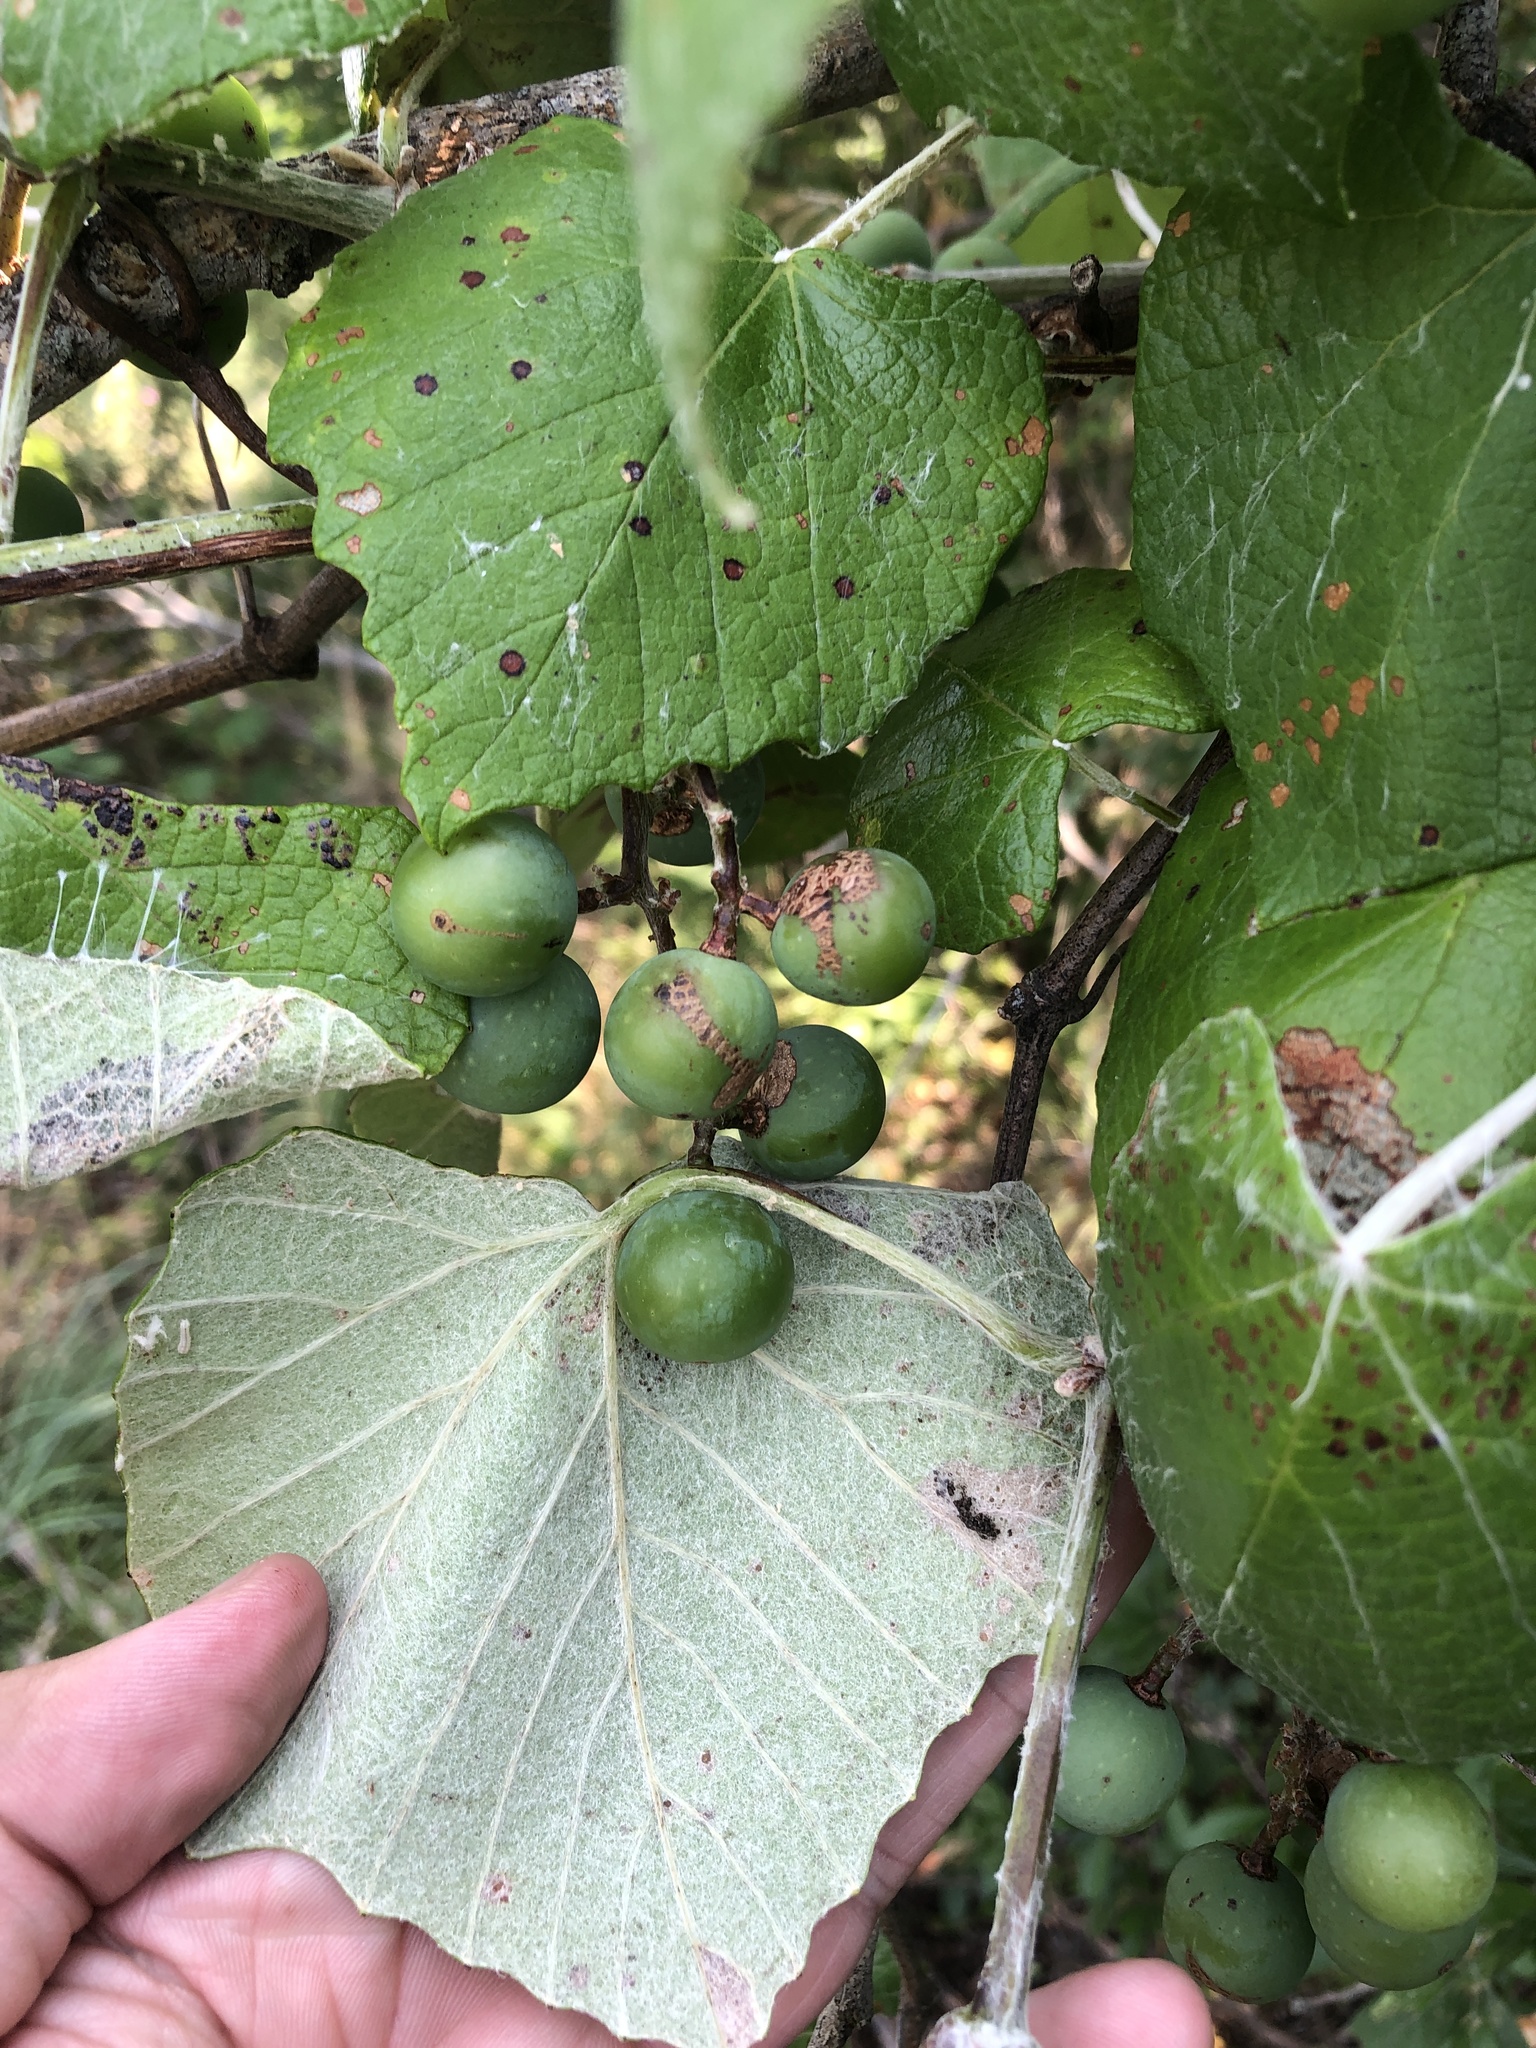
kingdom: Plantae
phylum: Tracheophyta
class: Magnoliopsida
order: Vitales
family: Vitaceae
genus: Vitis
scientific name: Vitis mustangensis
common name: Mustang grape
